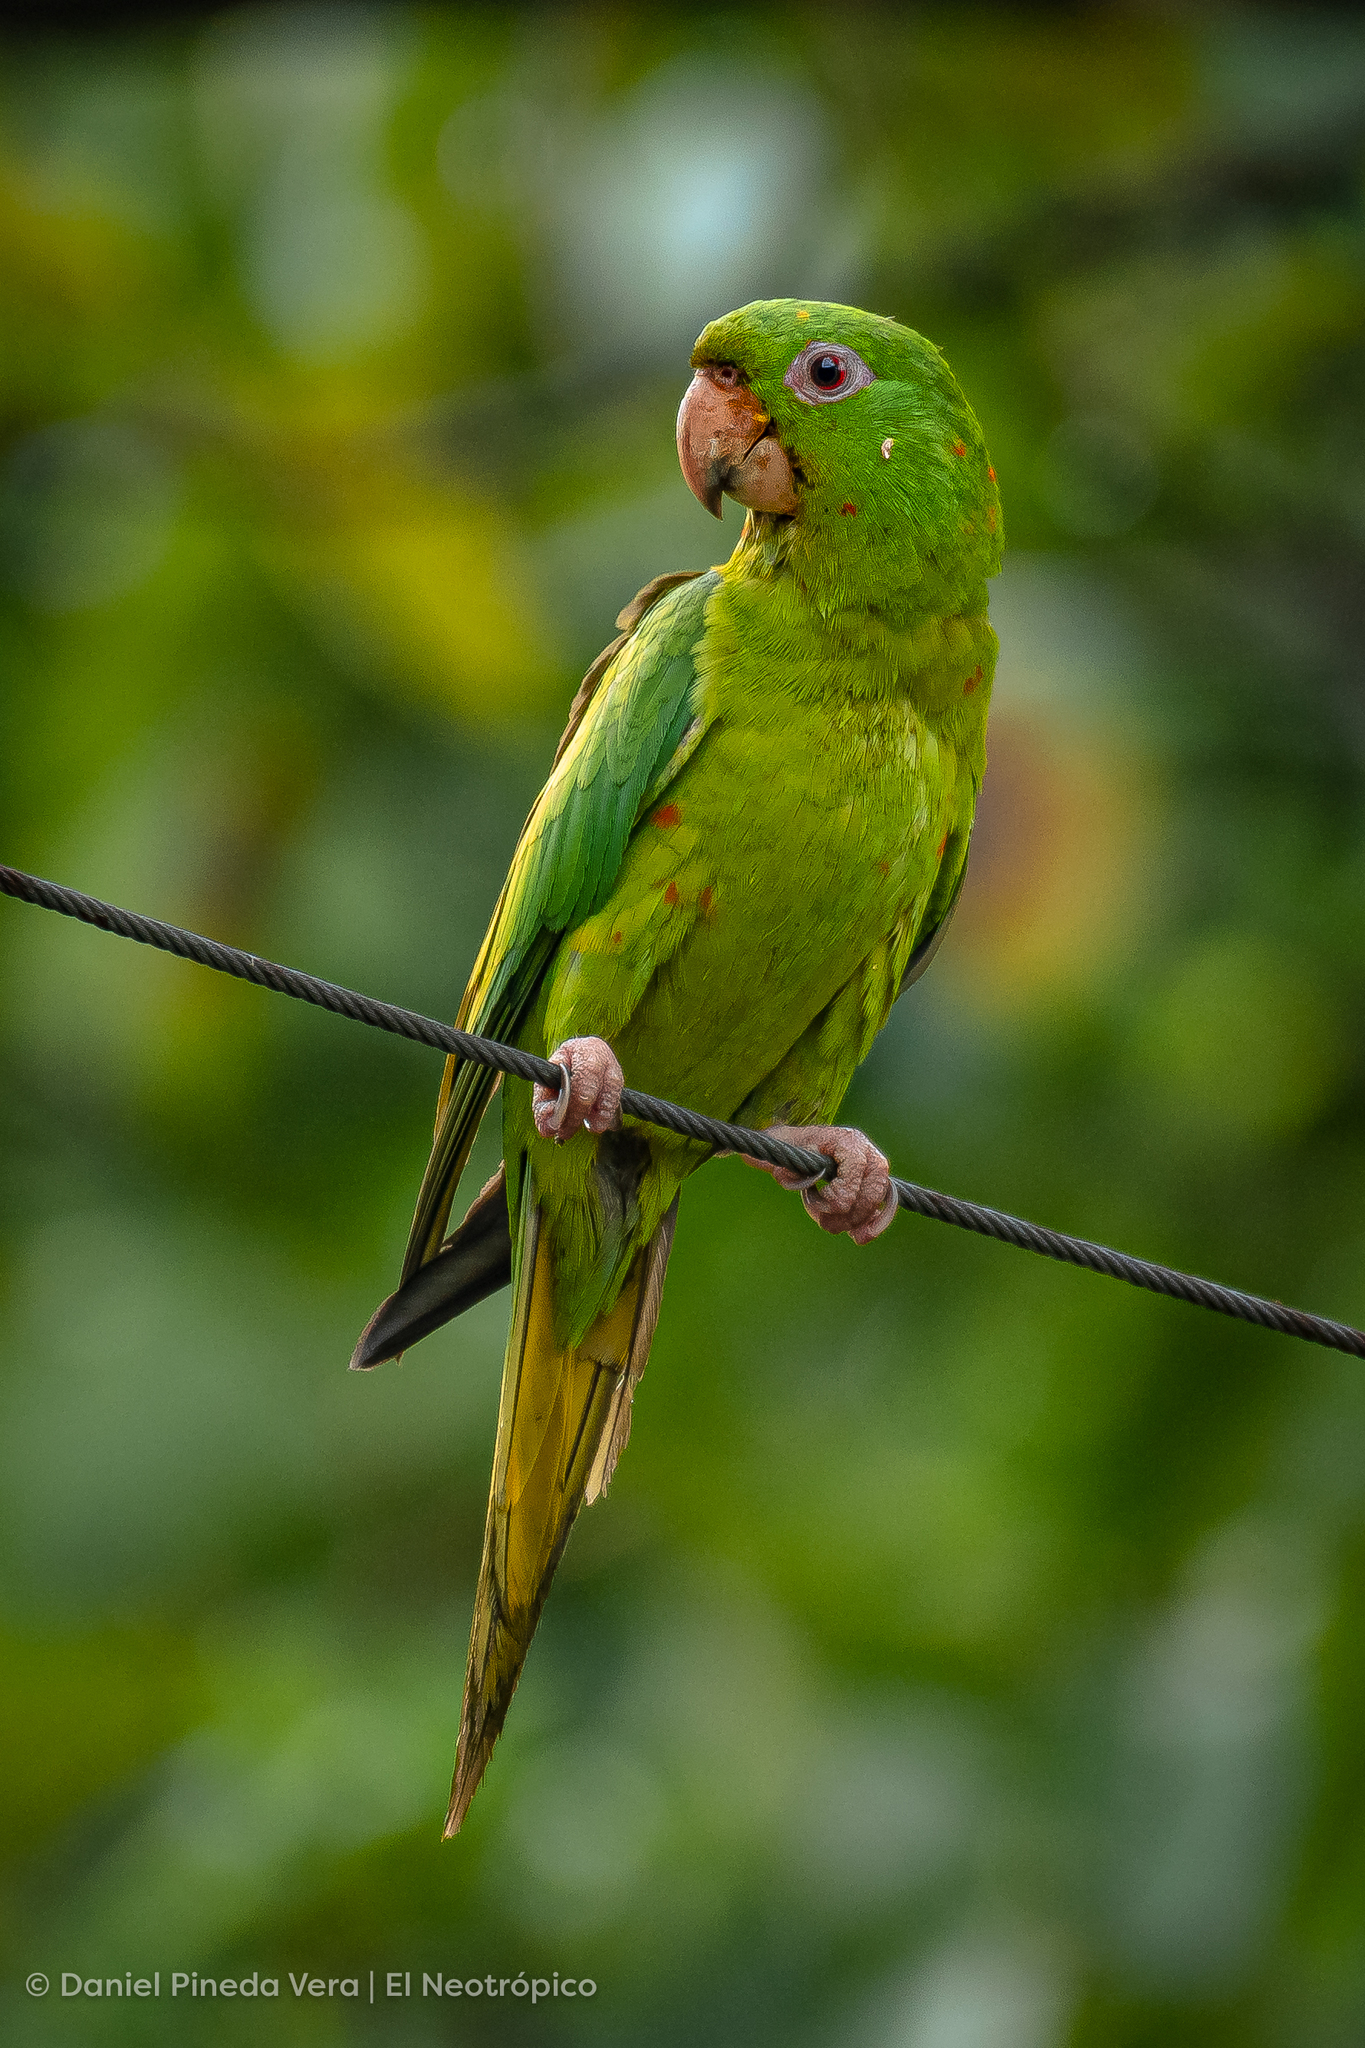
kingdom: Animalia
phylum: Chordata
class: Aves
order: Psittaciformes
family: Psittacidae
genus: Aratinga
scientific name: Aratinga holochlora
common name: Green parakeet
